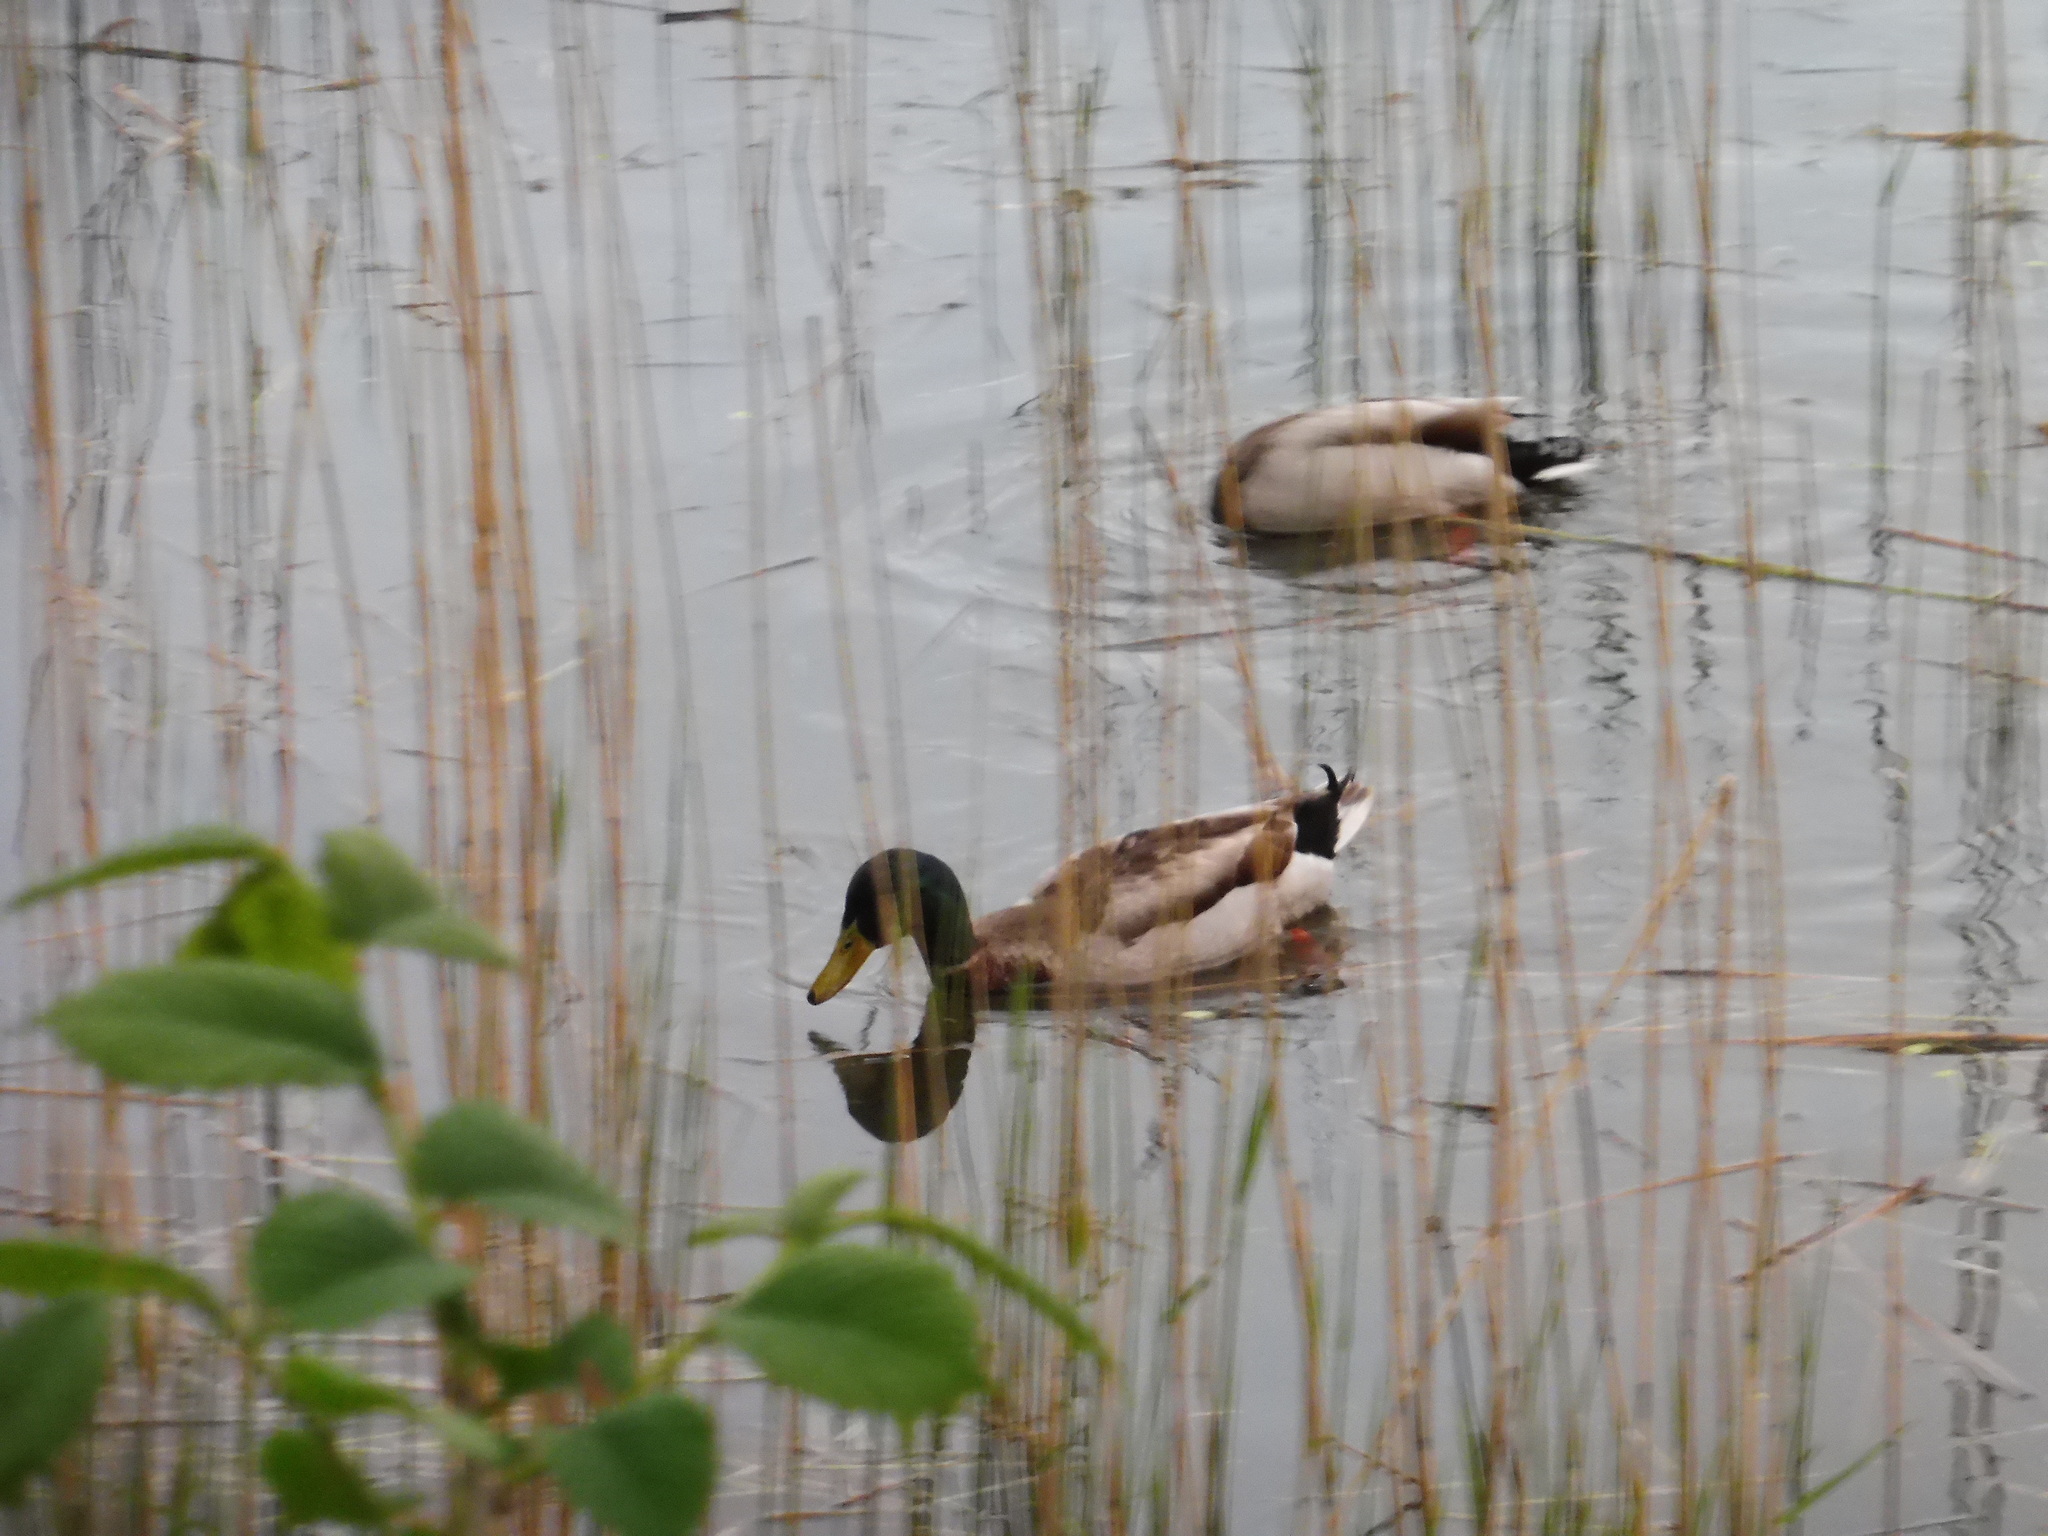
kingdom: Animalia
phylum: Chordata
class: Aves
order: Anseriformes
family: Anatidae
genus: Anas
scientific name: Anas platyrhynchos
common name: Mallard
